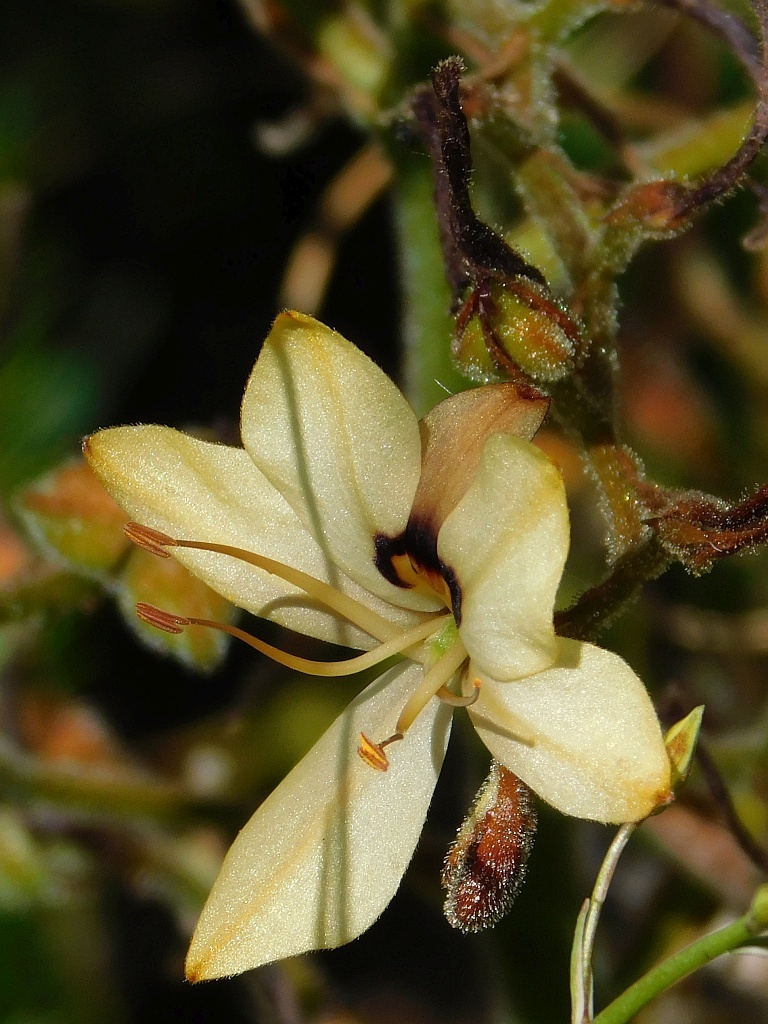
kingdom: Plantae
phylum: Tracheophyta
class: Liliopsida
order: Commelinales
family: Haemodoraceae
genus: Wachendorfia
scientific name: Wachendorfia paniculata
